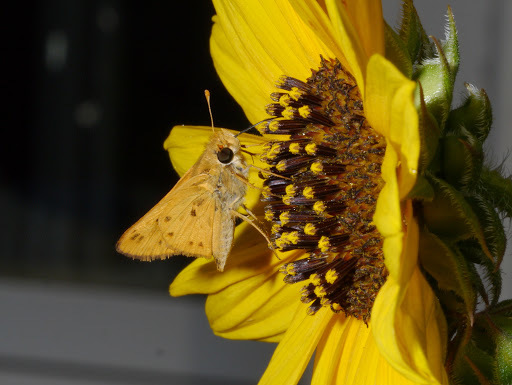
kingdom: Animalia
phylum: Arthropoda
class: Insecta
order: Lepidoptera
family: Hesperiidae
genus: Hylephila
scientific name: Hylephila phyleus
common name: Fiery skipper
